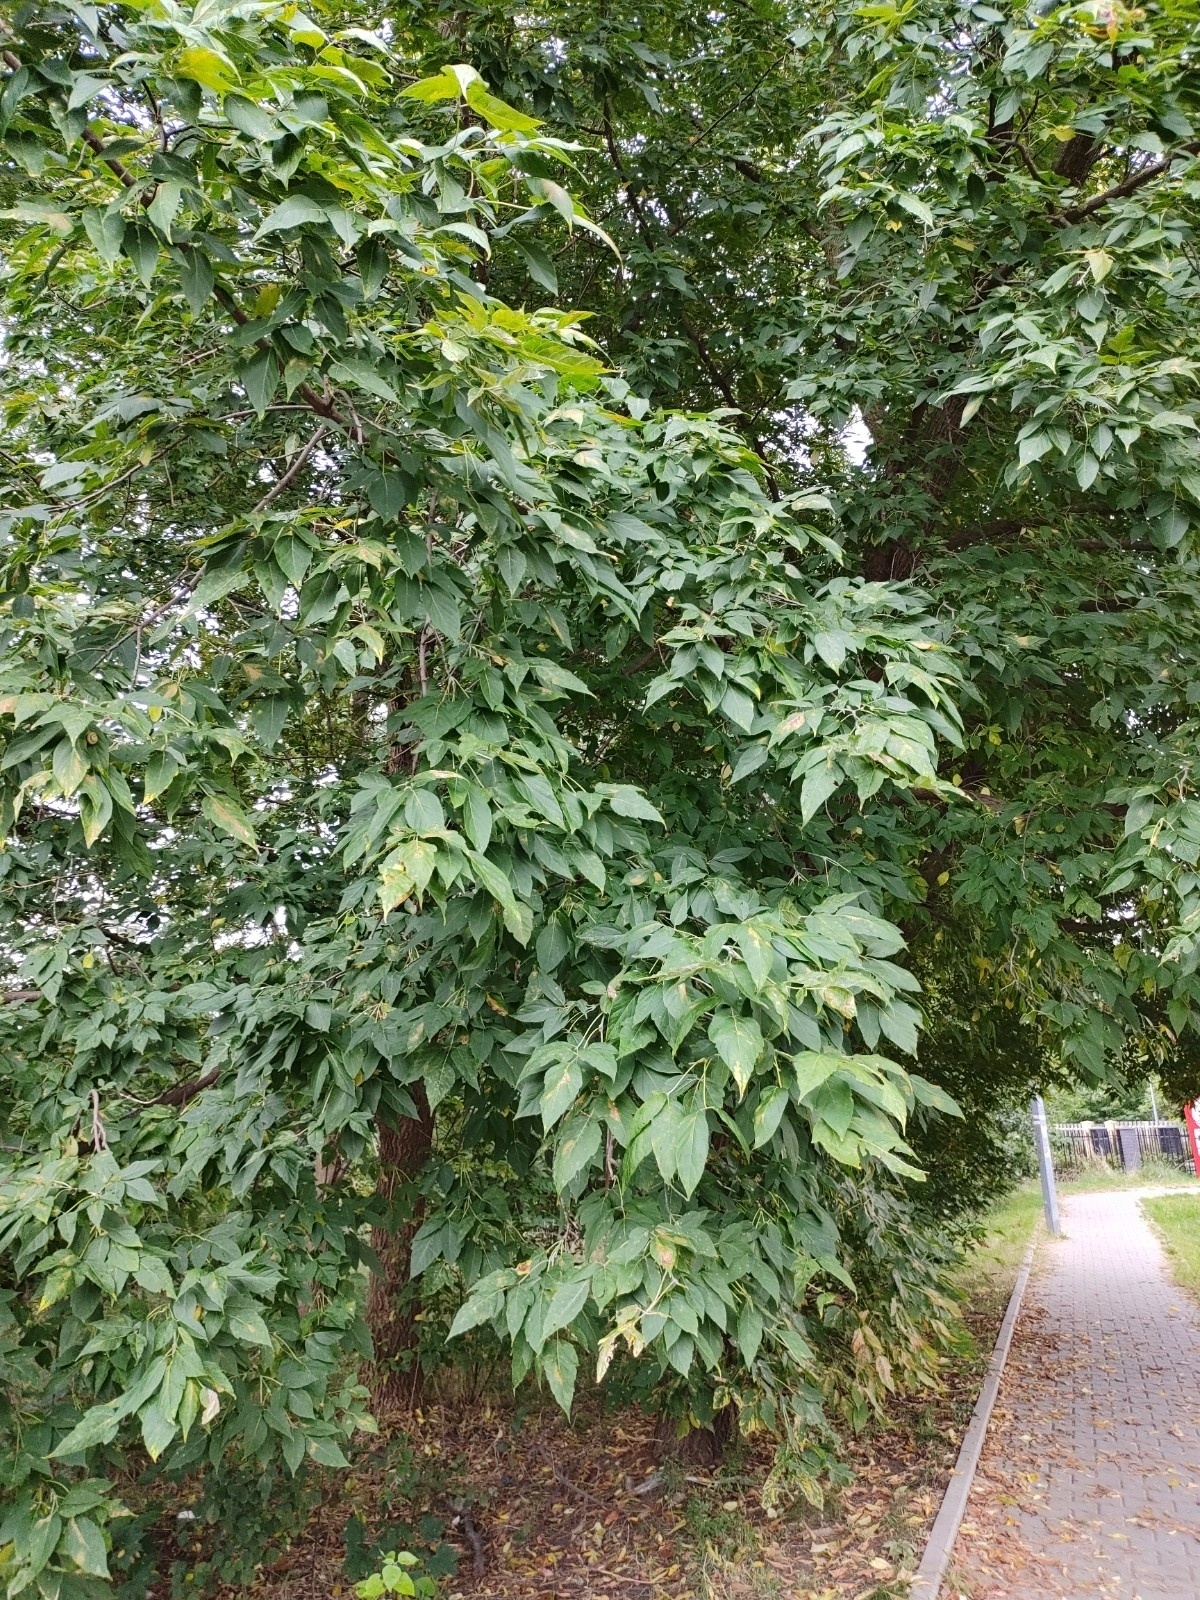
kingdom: Plantae
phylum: Tracheophyta
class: Magnoliopsida
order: Sapindales
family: Sapindaceae
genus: Acer
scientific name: Acer negundo
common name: Ashleaf maple
